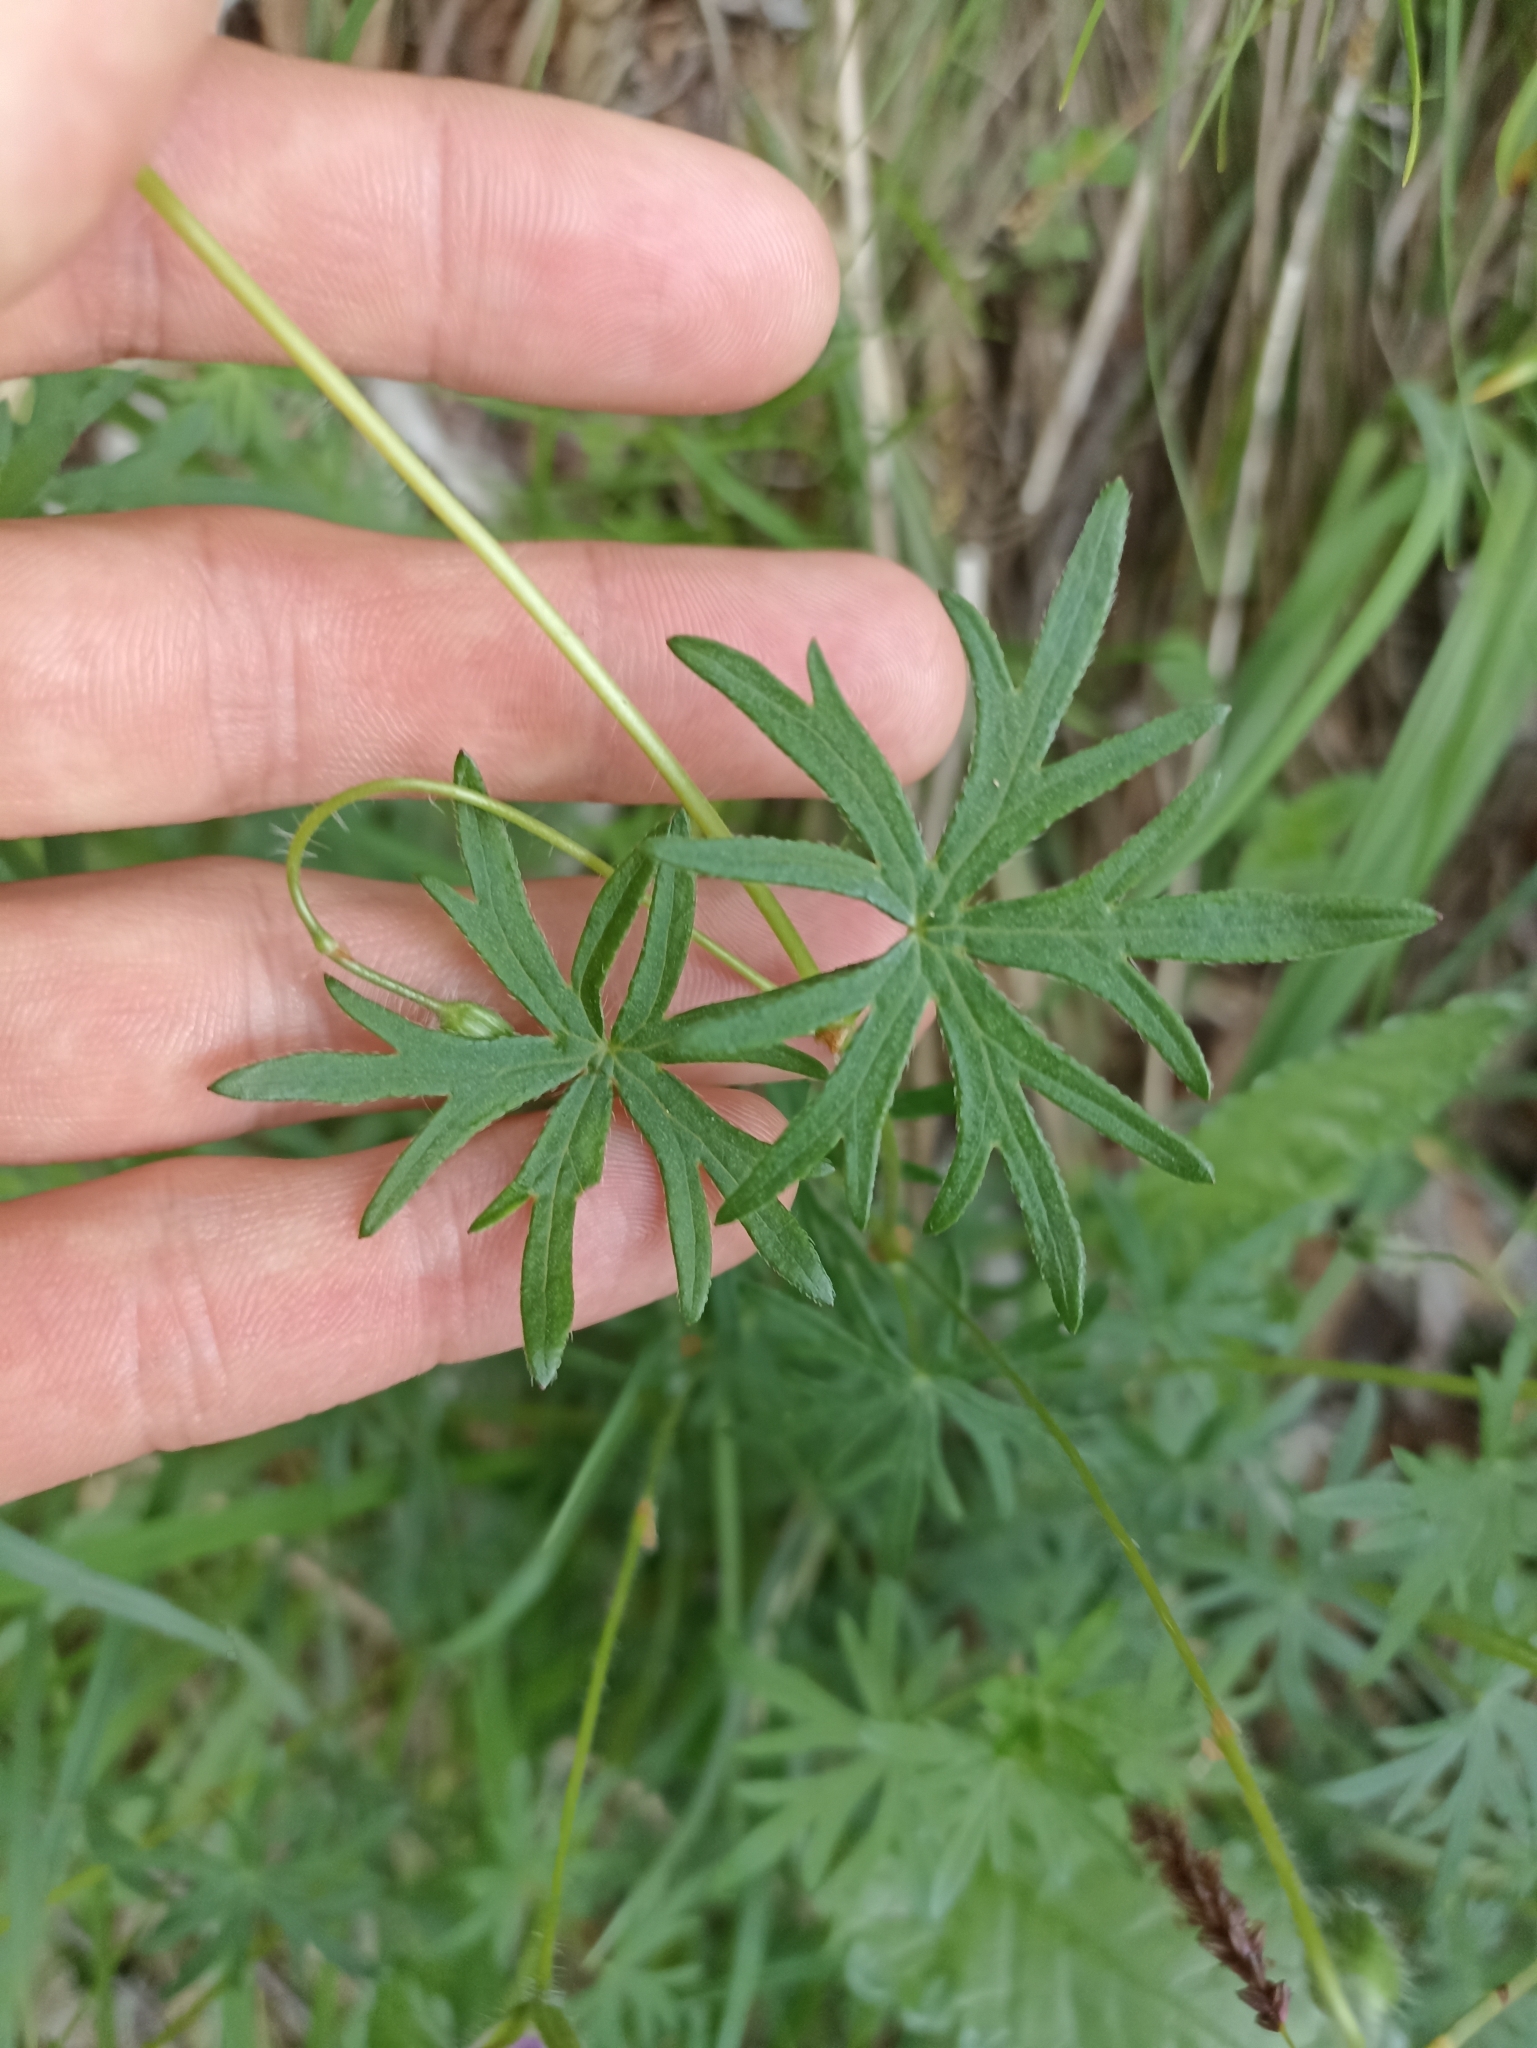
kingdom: Plantae
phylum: Tracheophyta
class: Magnoliopsida
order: Geraniales
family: Geraniaceae
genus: Geranium
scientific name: Geranium sanguineum
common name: Bloody crane's-bill
